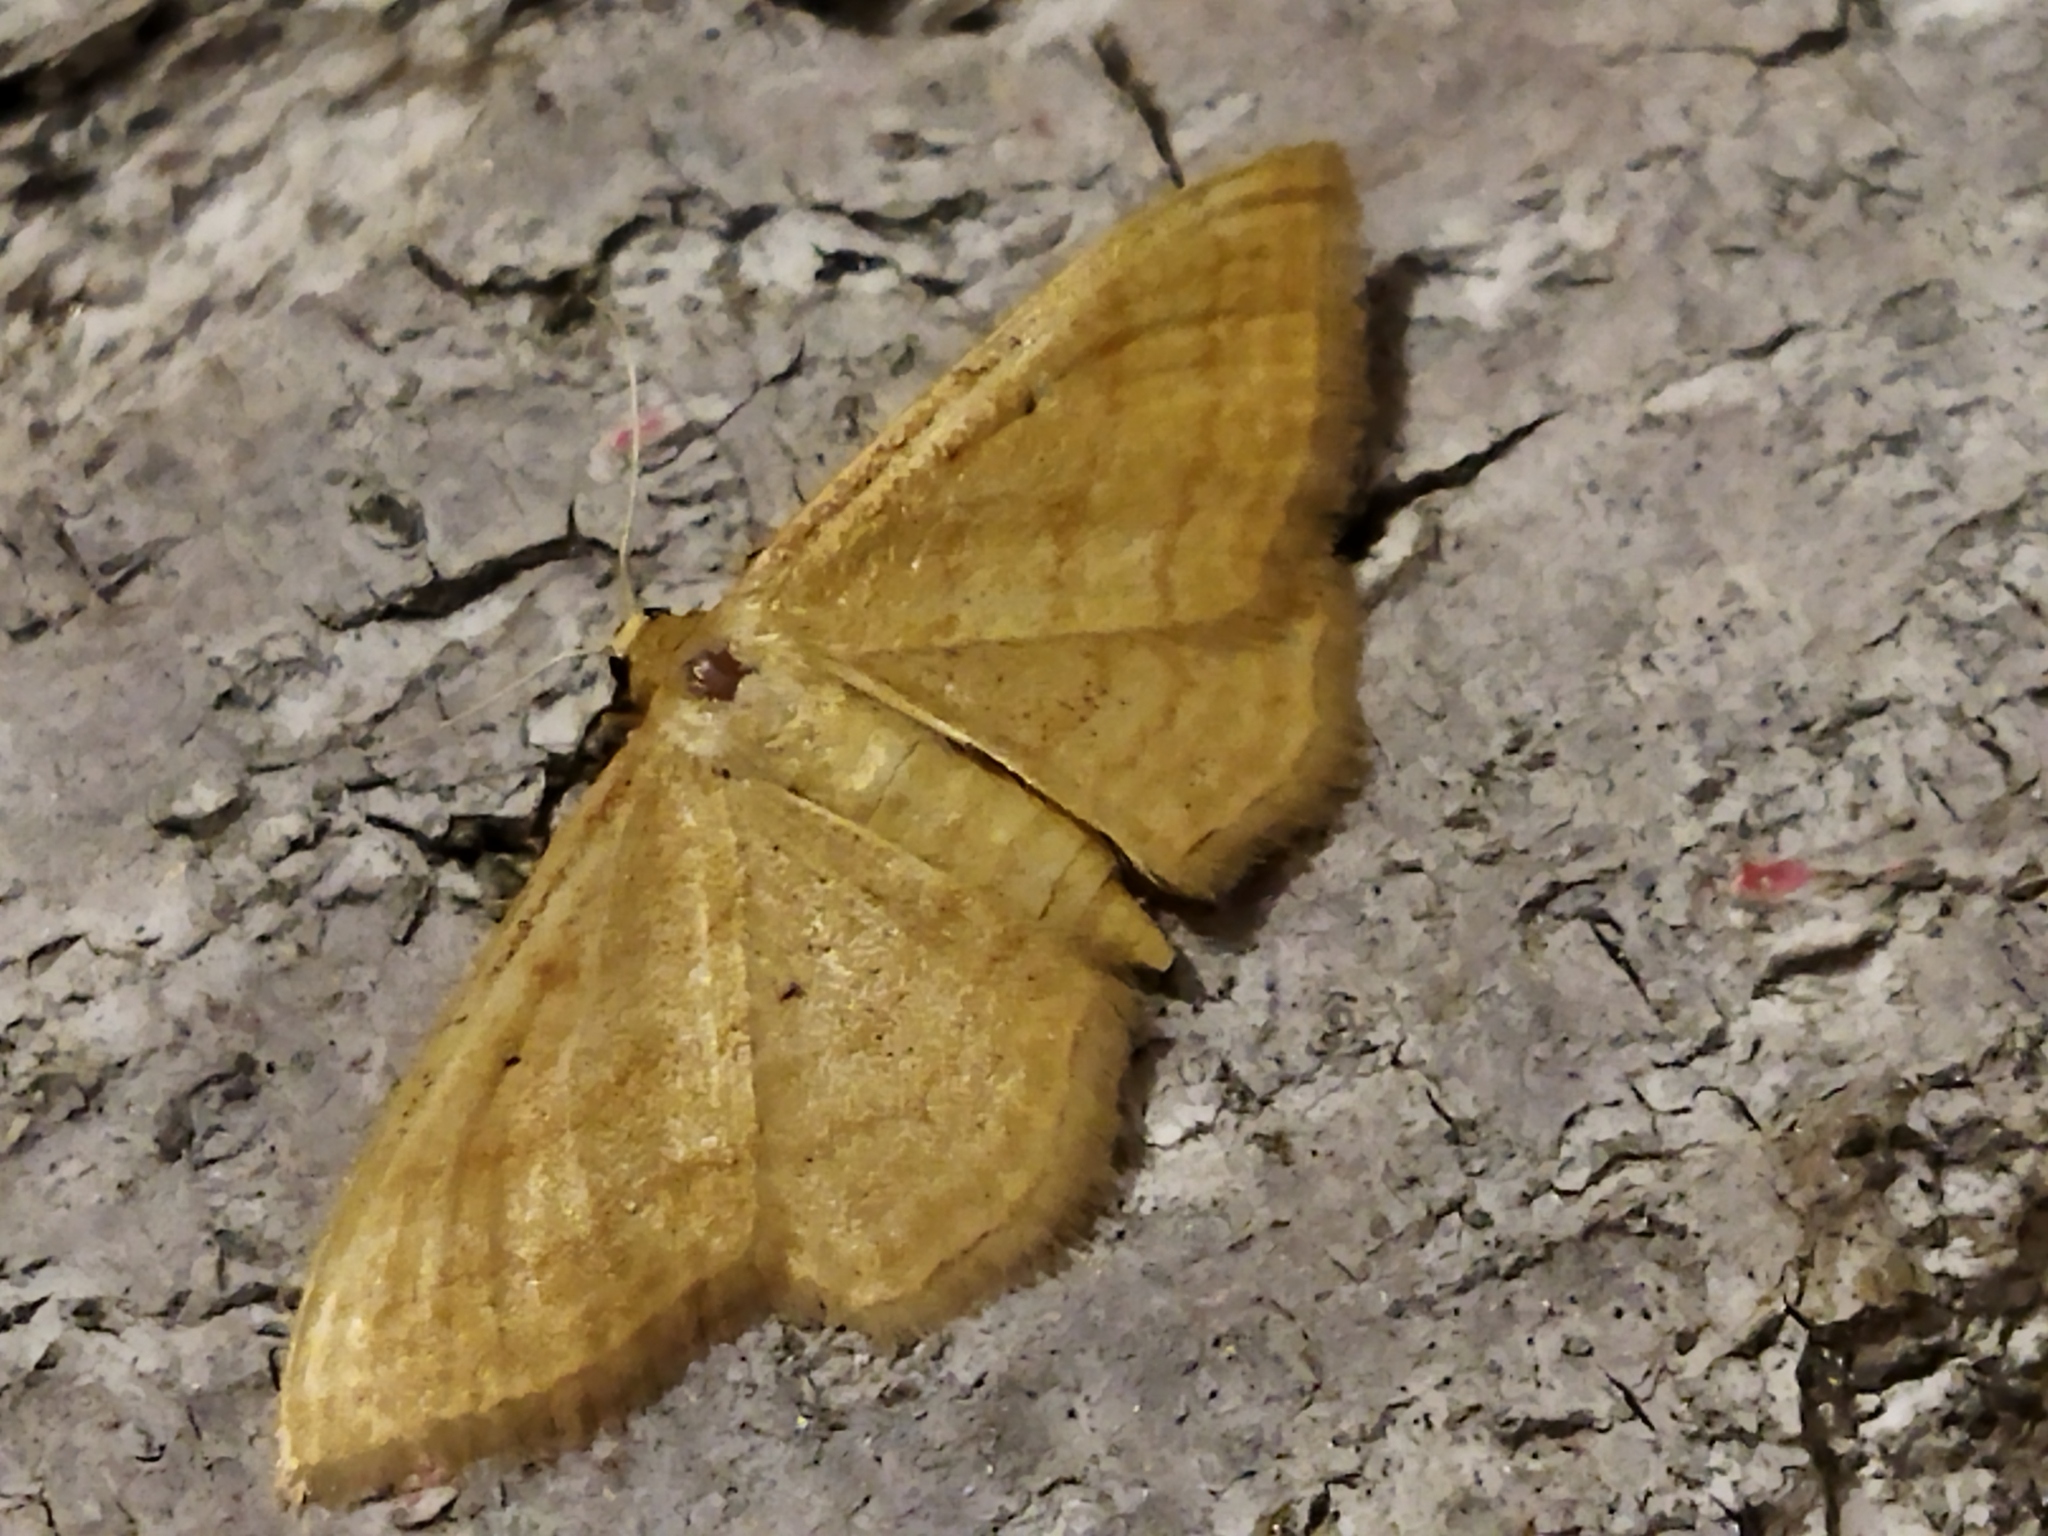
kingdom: Animalia
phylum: Arthropoda
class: Insecta
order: Lepidoptera
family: Geometridae
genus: Idaea
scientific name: Idaea rufaria
